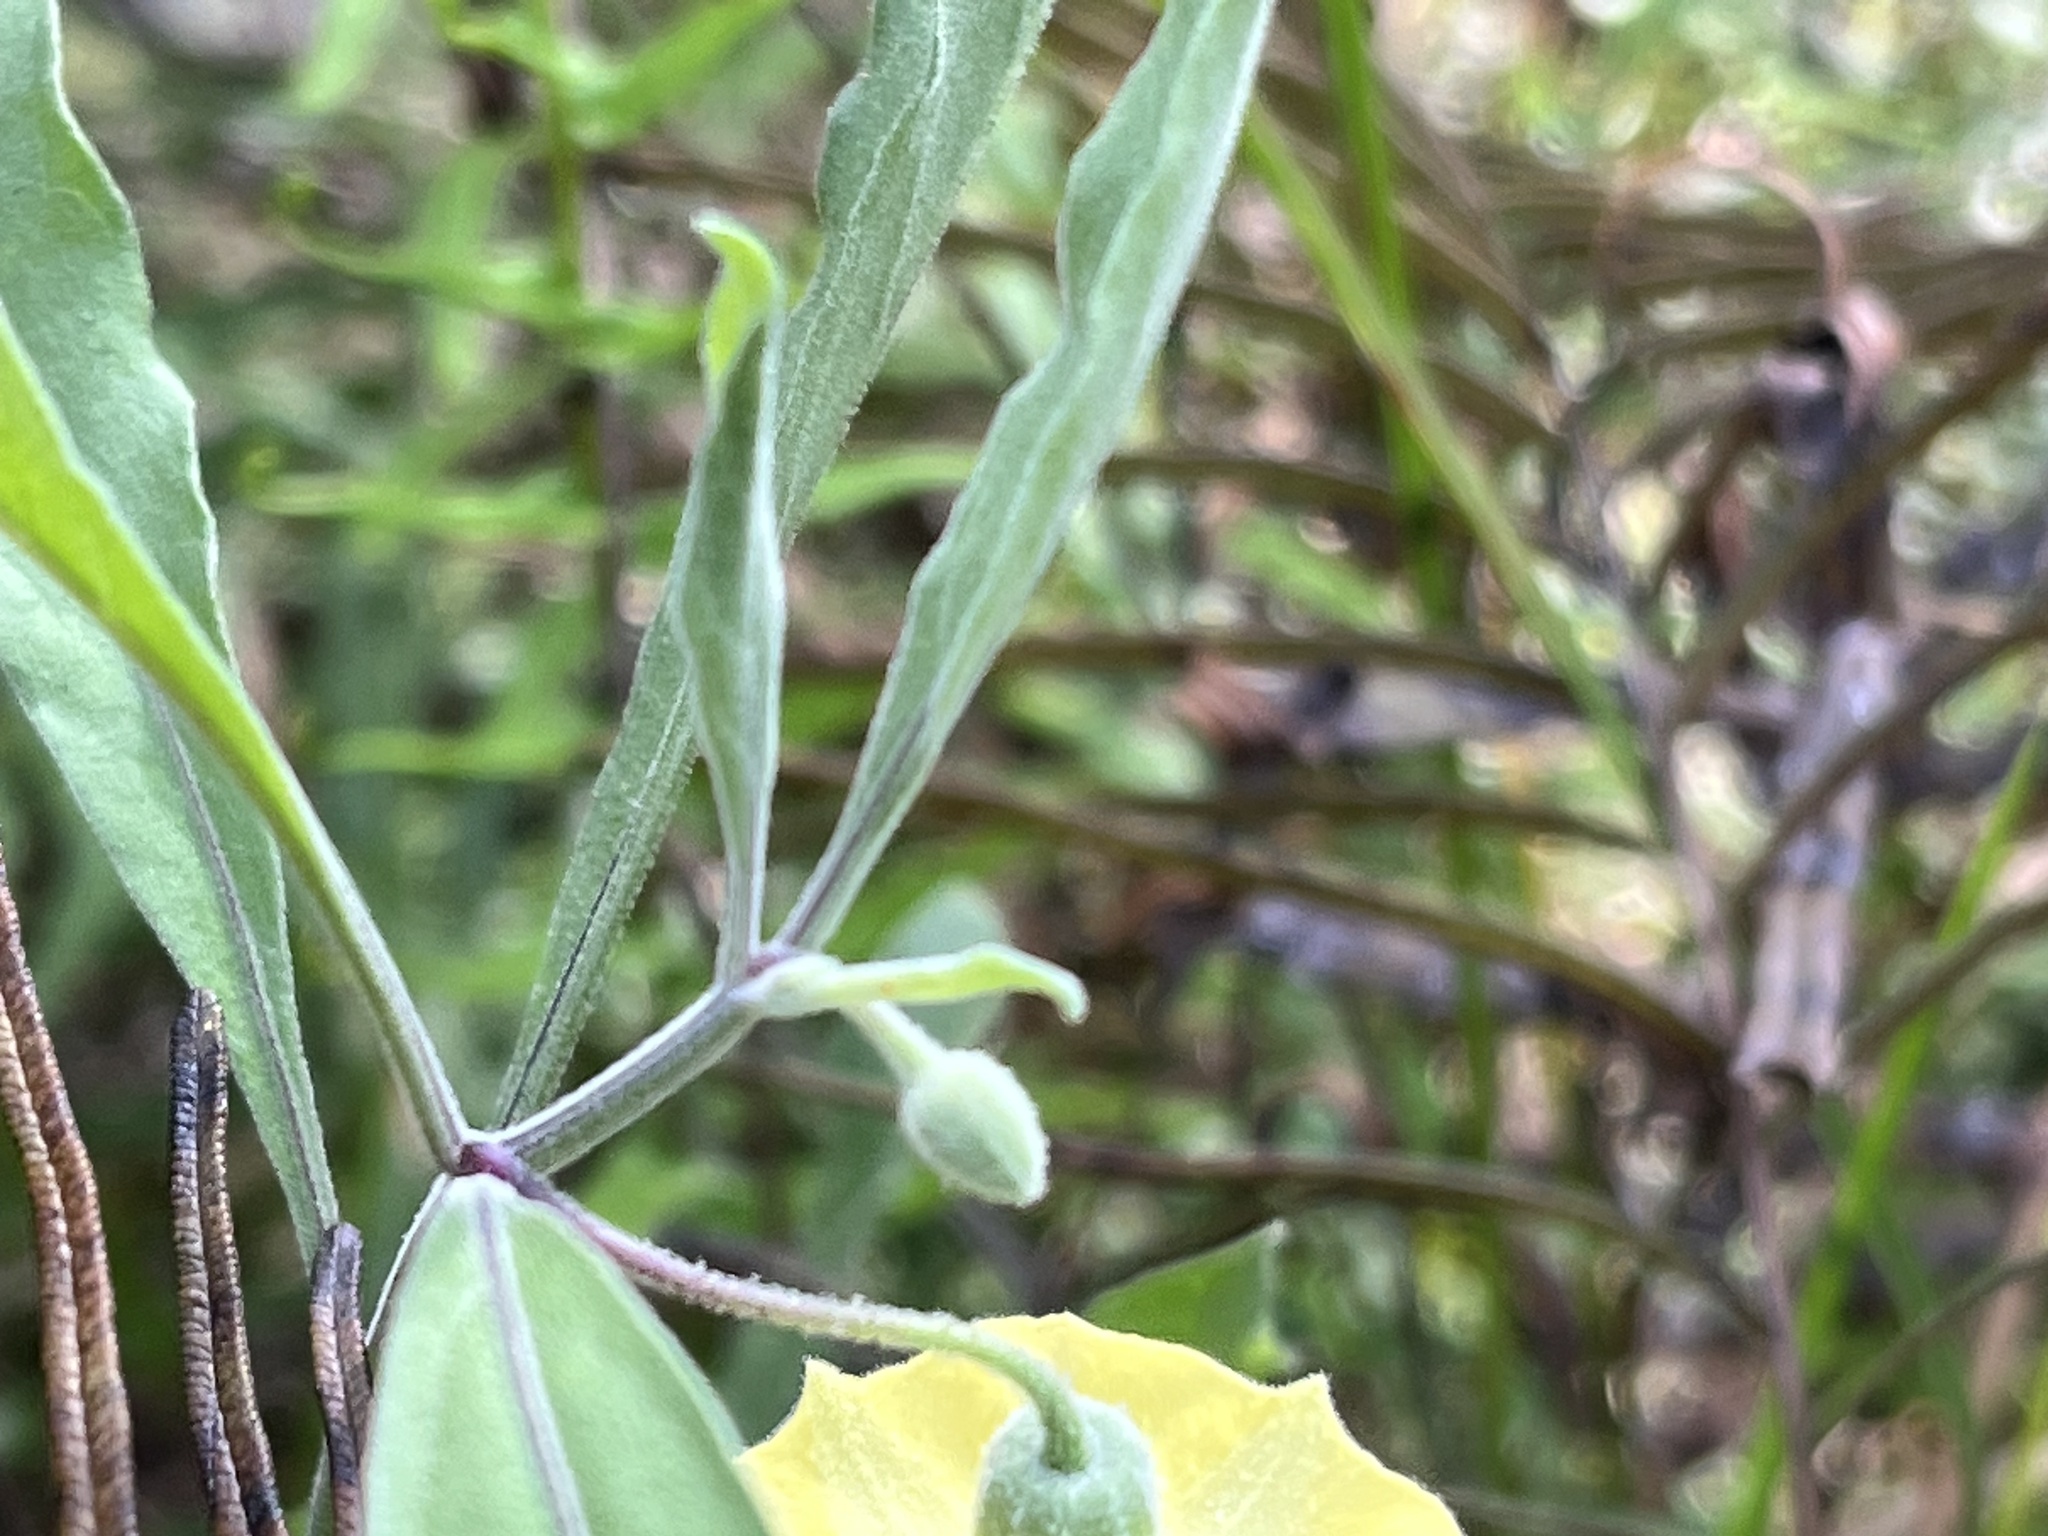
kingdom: Plantae
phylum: Tracheophyta
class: Magnoliopsida
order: Solanales
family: Solanaceae
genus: Physalis
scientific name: Physalis elliottii
